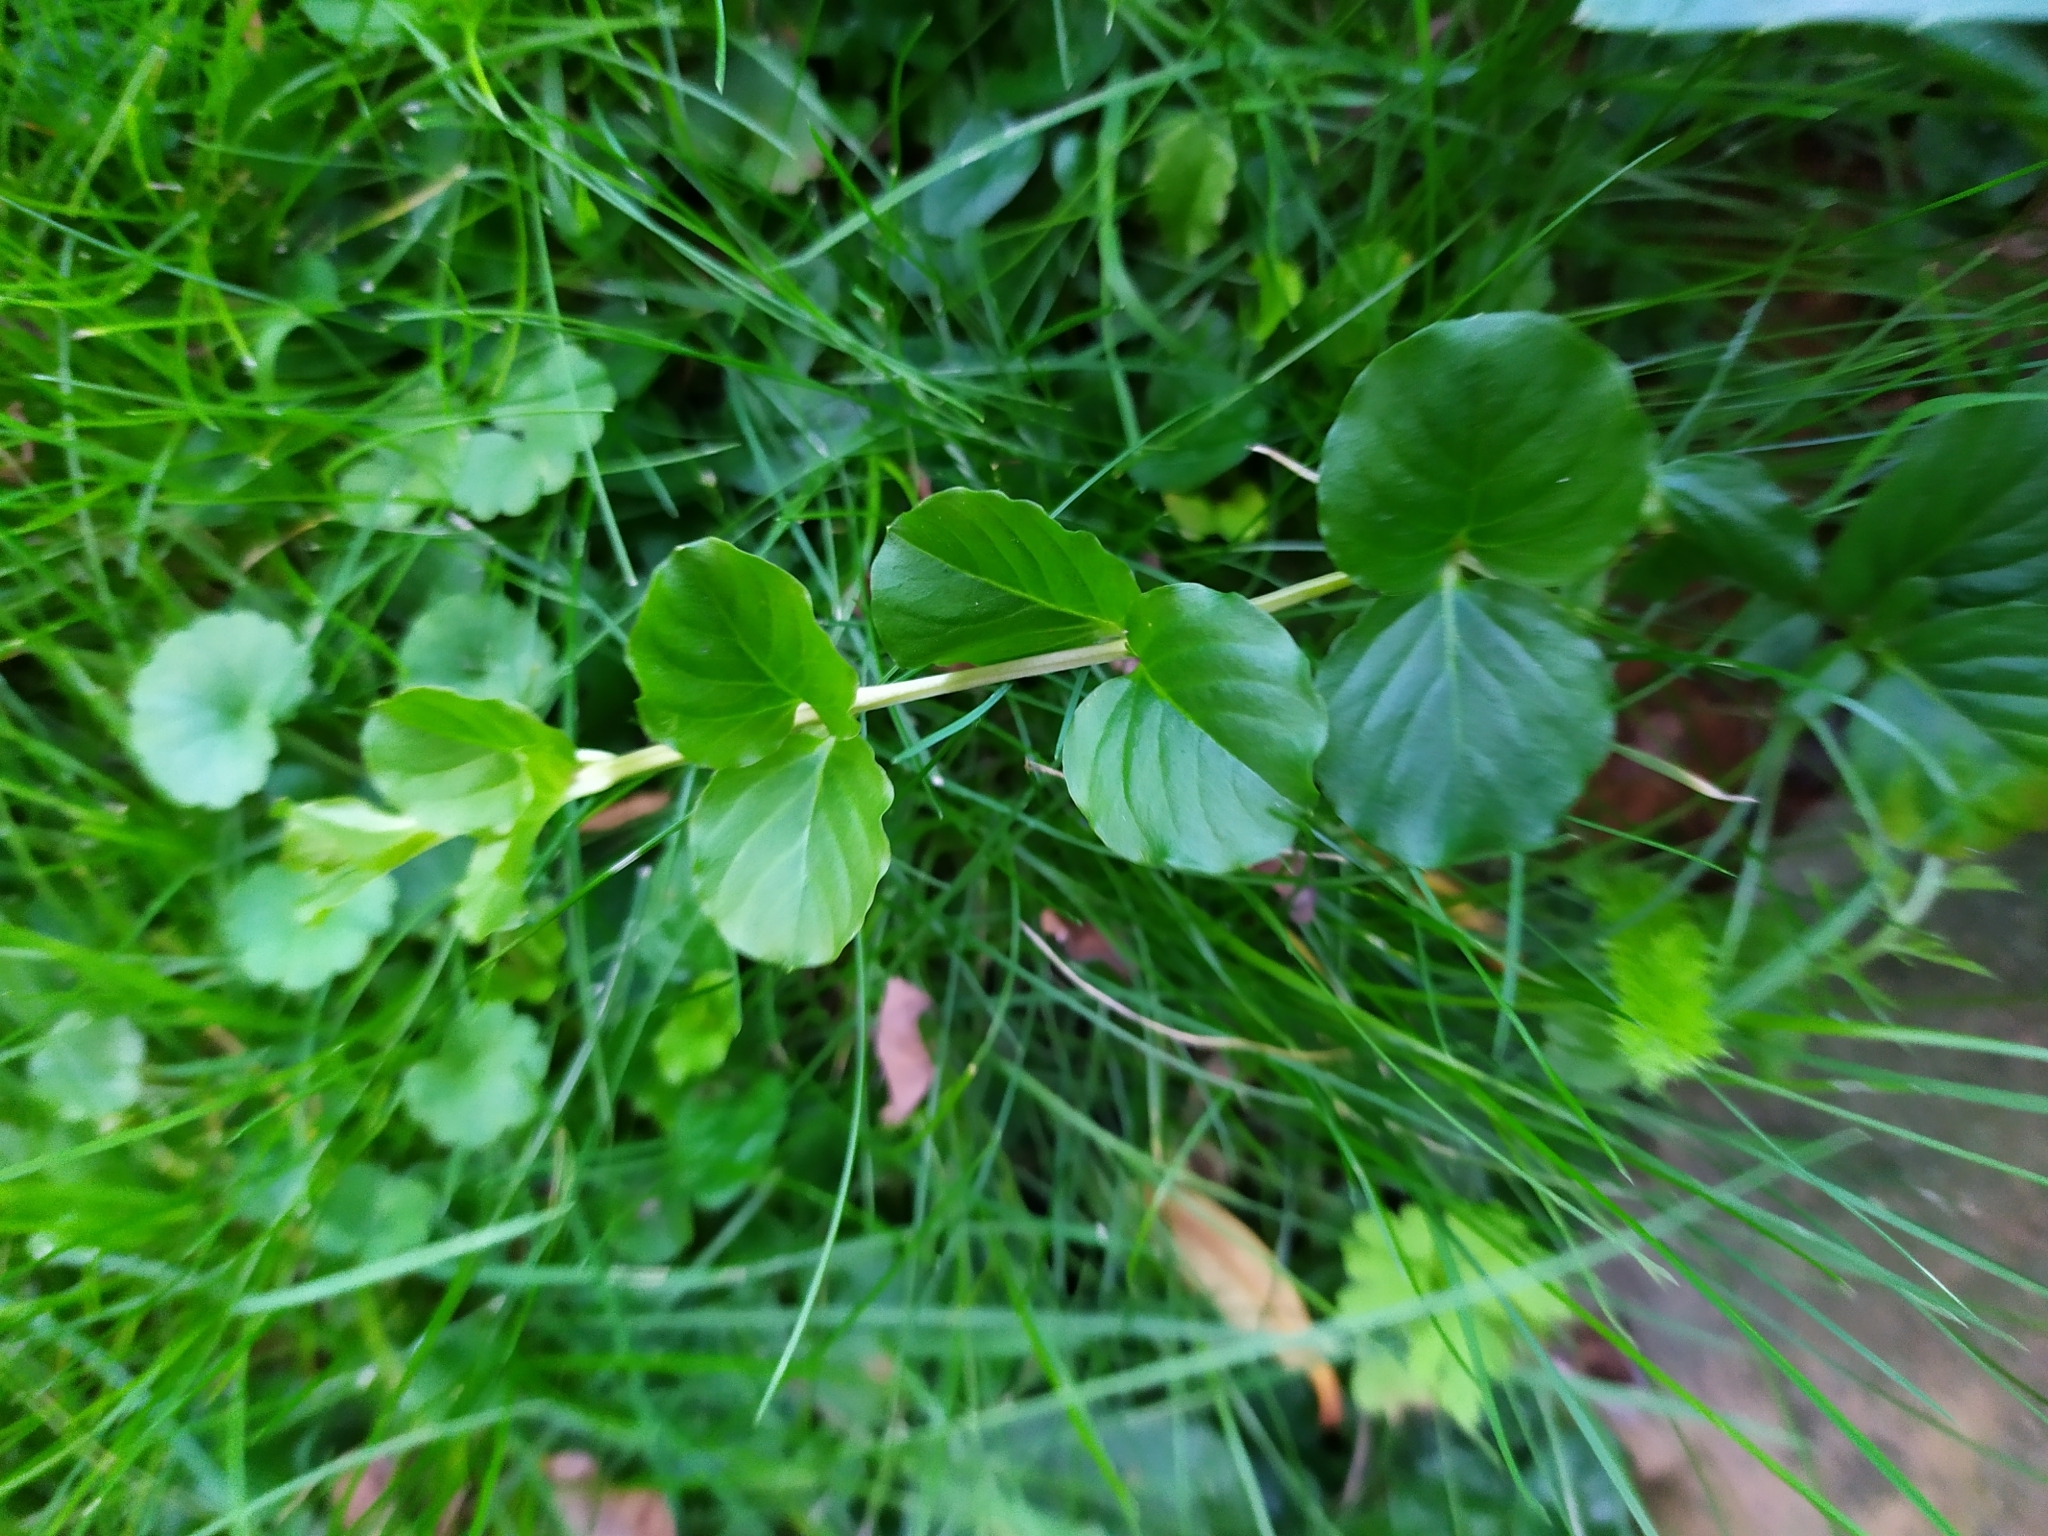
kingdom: Plantae
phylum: Tracheophyta
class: Magnoliopsida
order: Ericales
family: Primulaceae
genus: Lysimachia
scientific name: Lysimachia nummularia
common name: Moneywort
